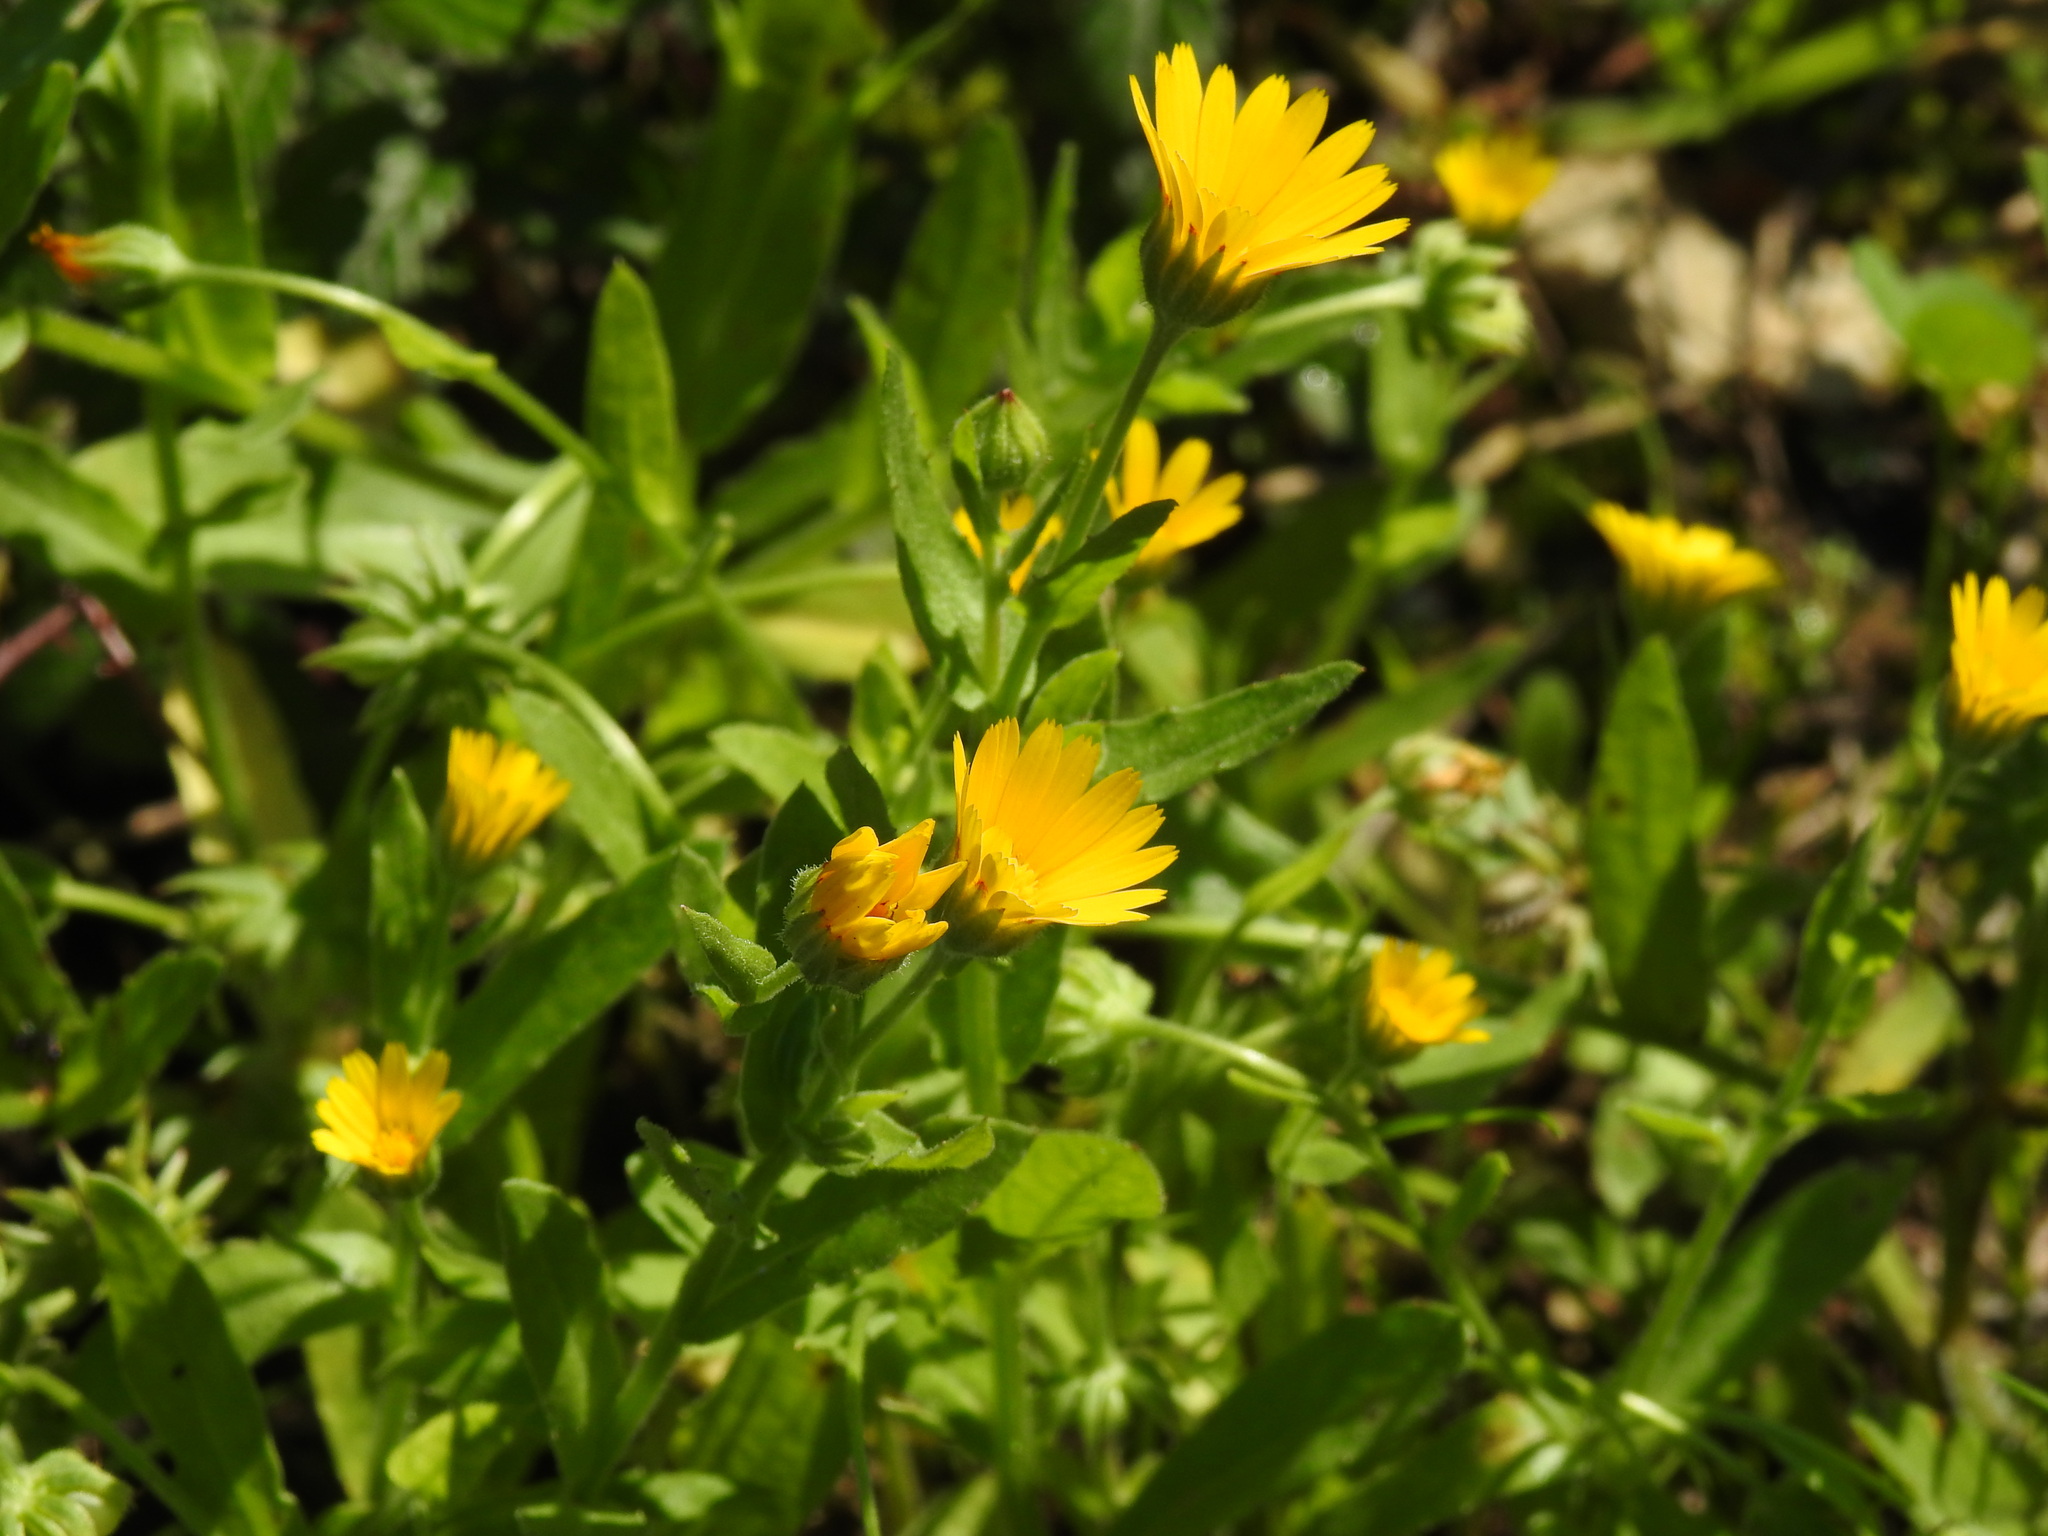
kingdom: Plantae
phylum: Tracheophyta
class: Magnoliopsida
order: Asterales
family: Asteraceae
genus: Calendula
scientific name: Calendula arvensis
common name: Field marigold
